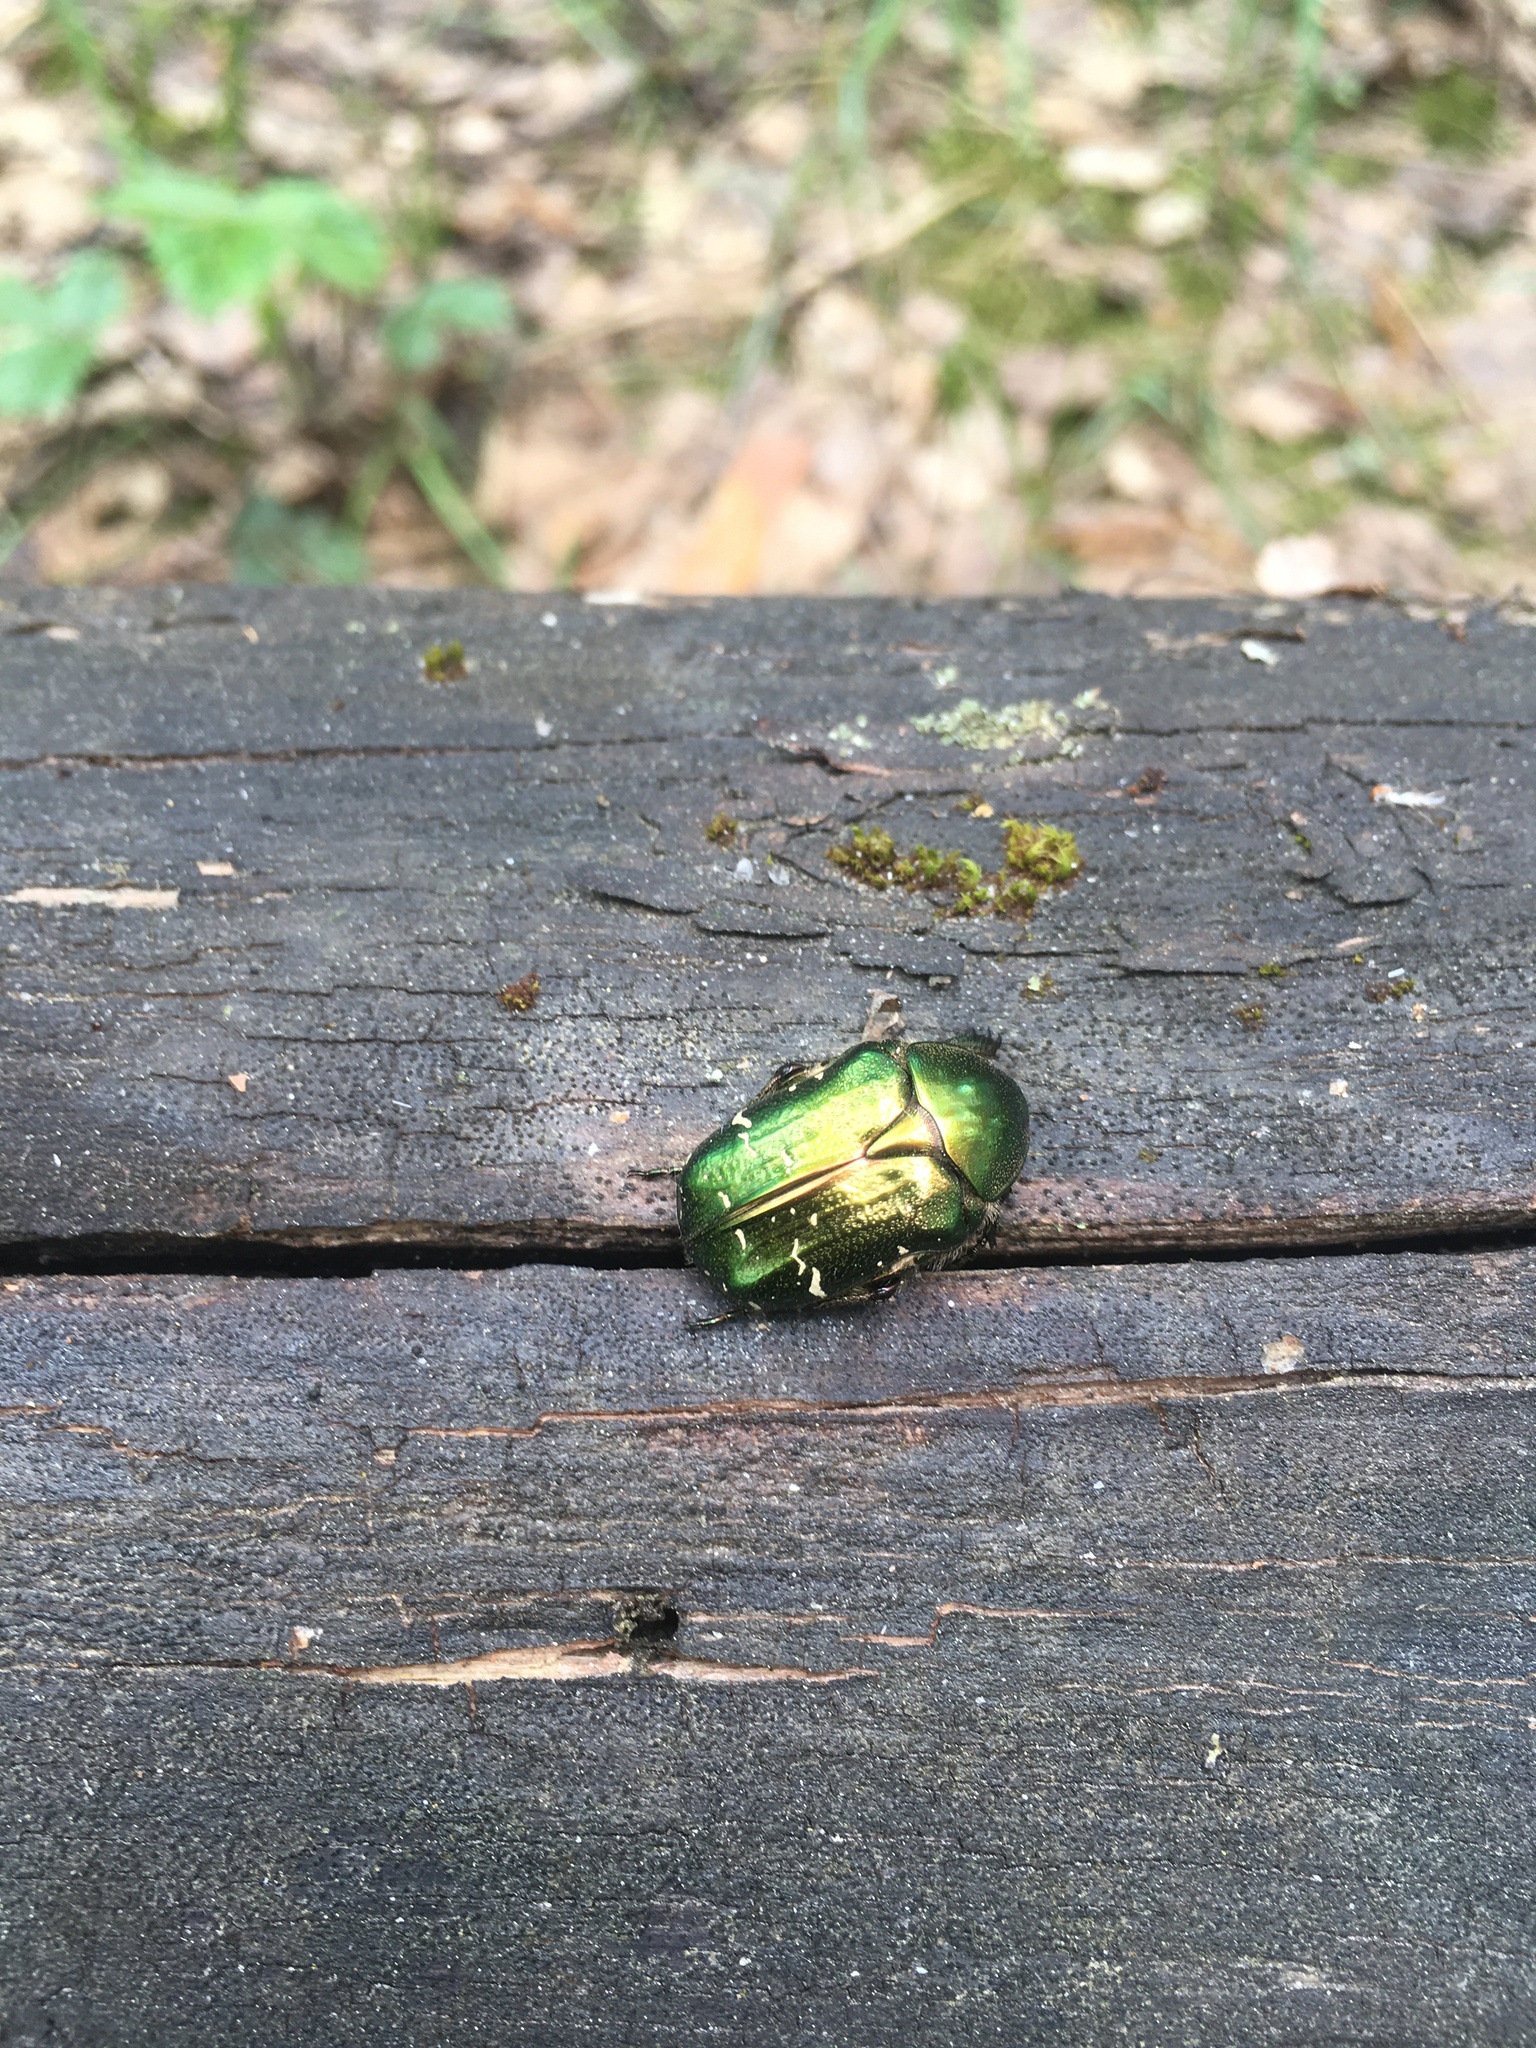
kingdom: Animalia
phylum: Arthropoda
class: Insecta
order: Coleoptera
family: Scarabaeidae
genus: Cetonia
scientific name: Cetonia aurata
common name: Rose chafer
